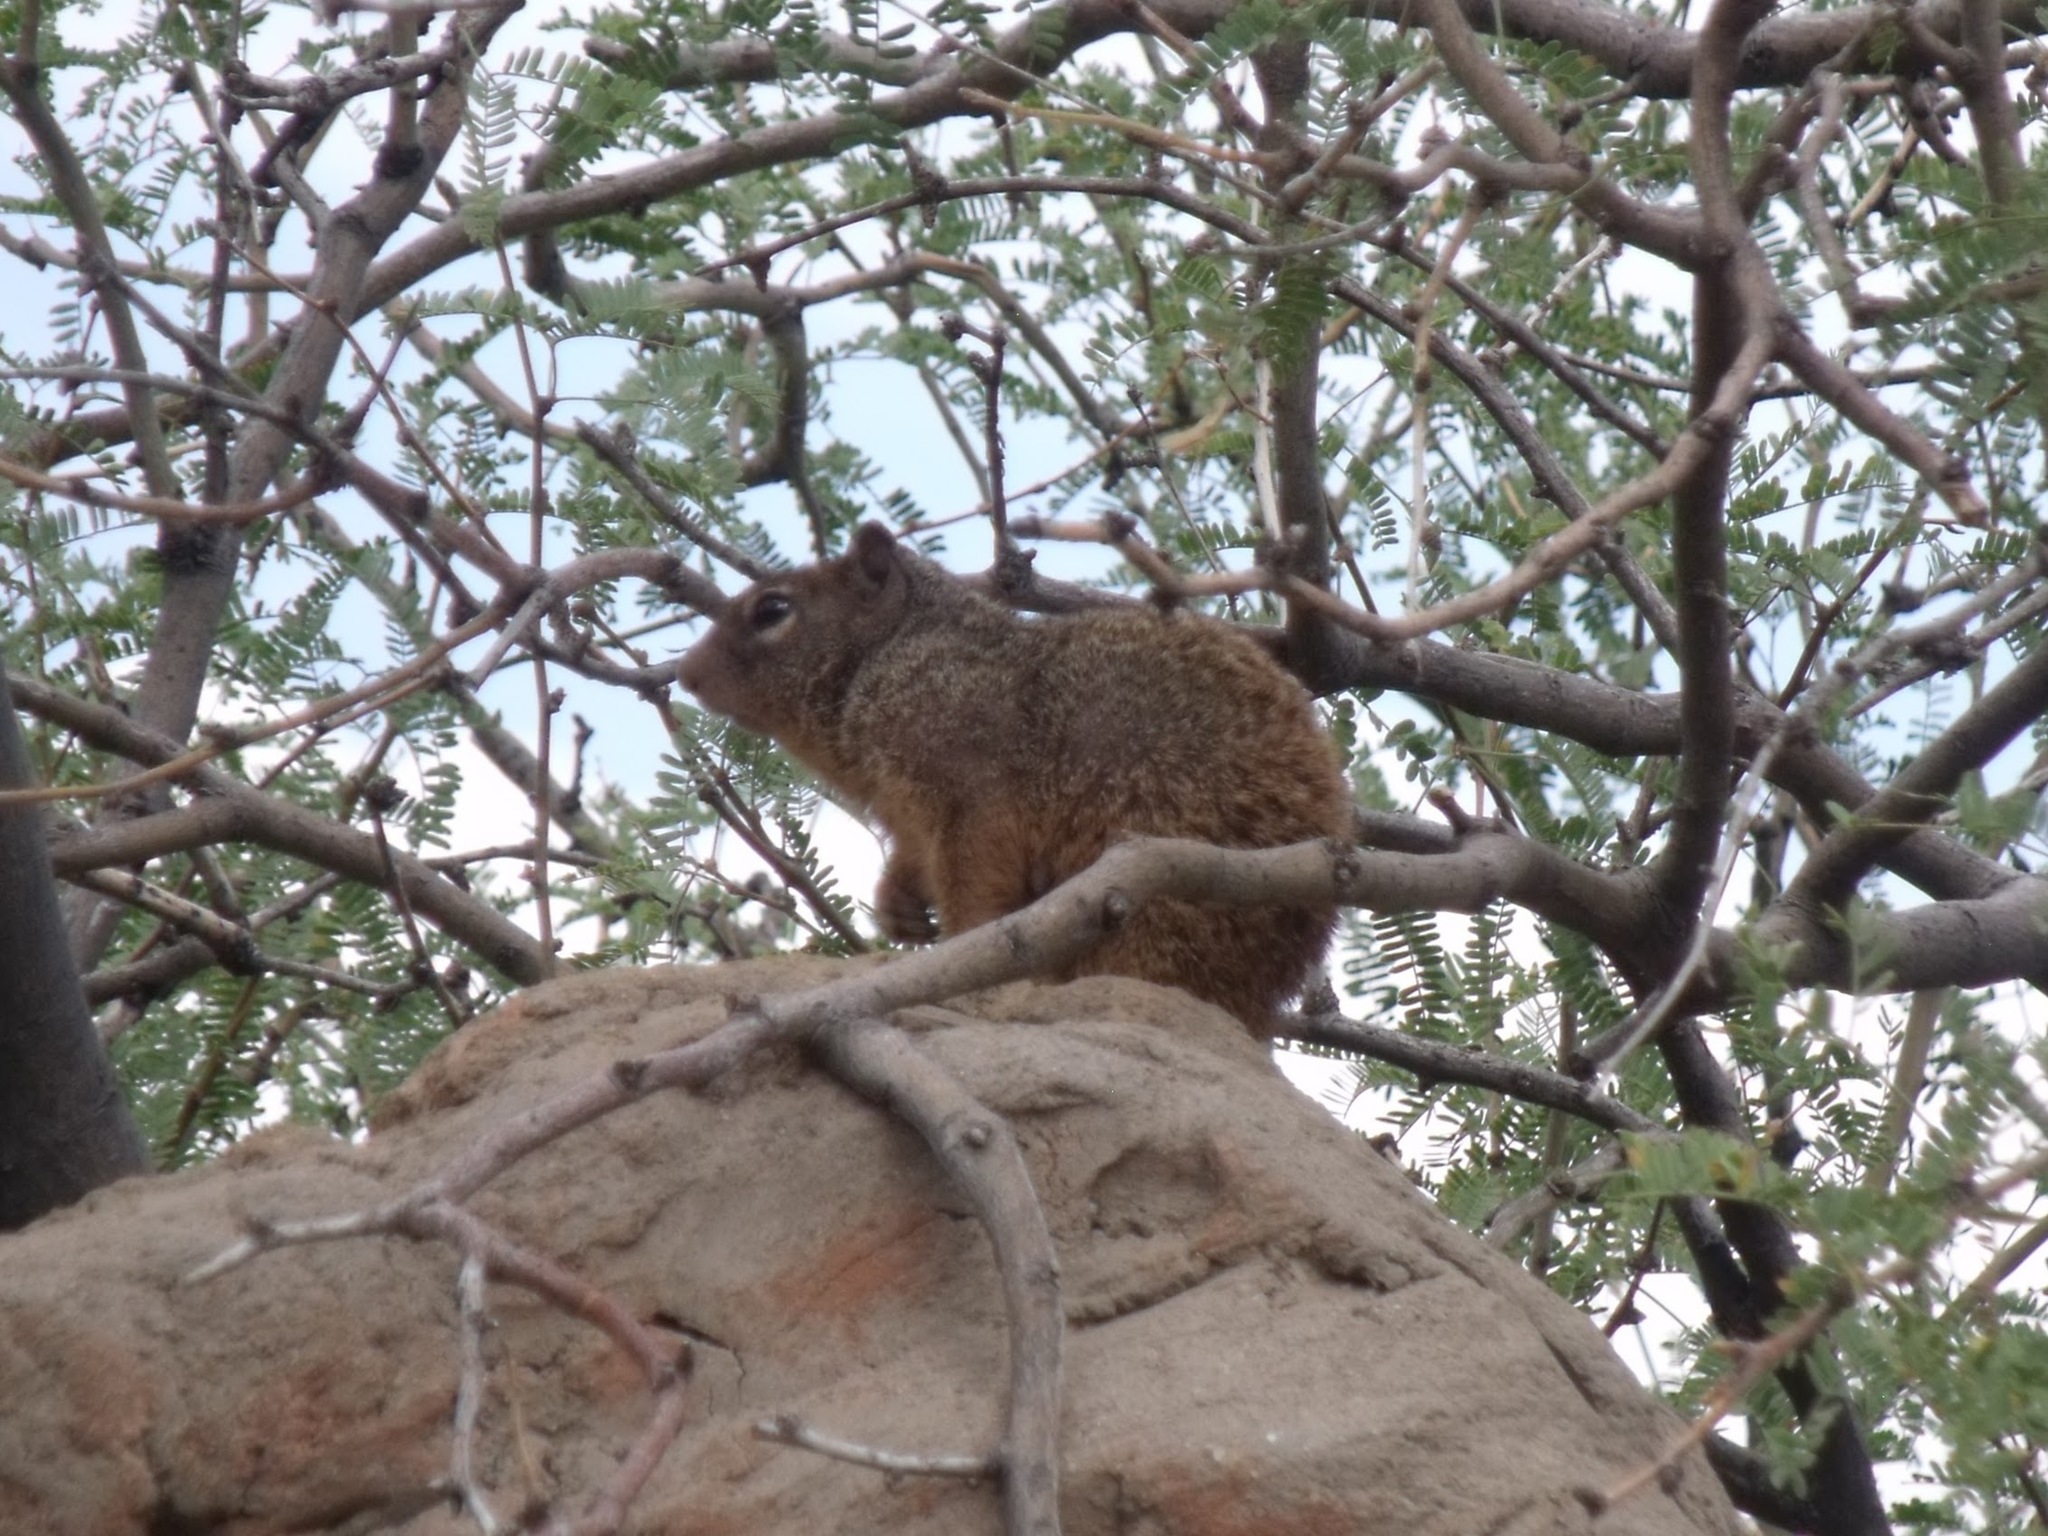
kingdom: Animalia
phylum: Chordata
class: Mammalia
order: Rodentia
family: Sciuridae
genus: Otospermophilus
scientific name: Otospermophilus variegatus
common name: Rock squirrel
